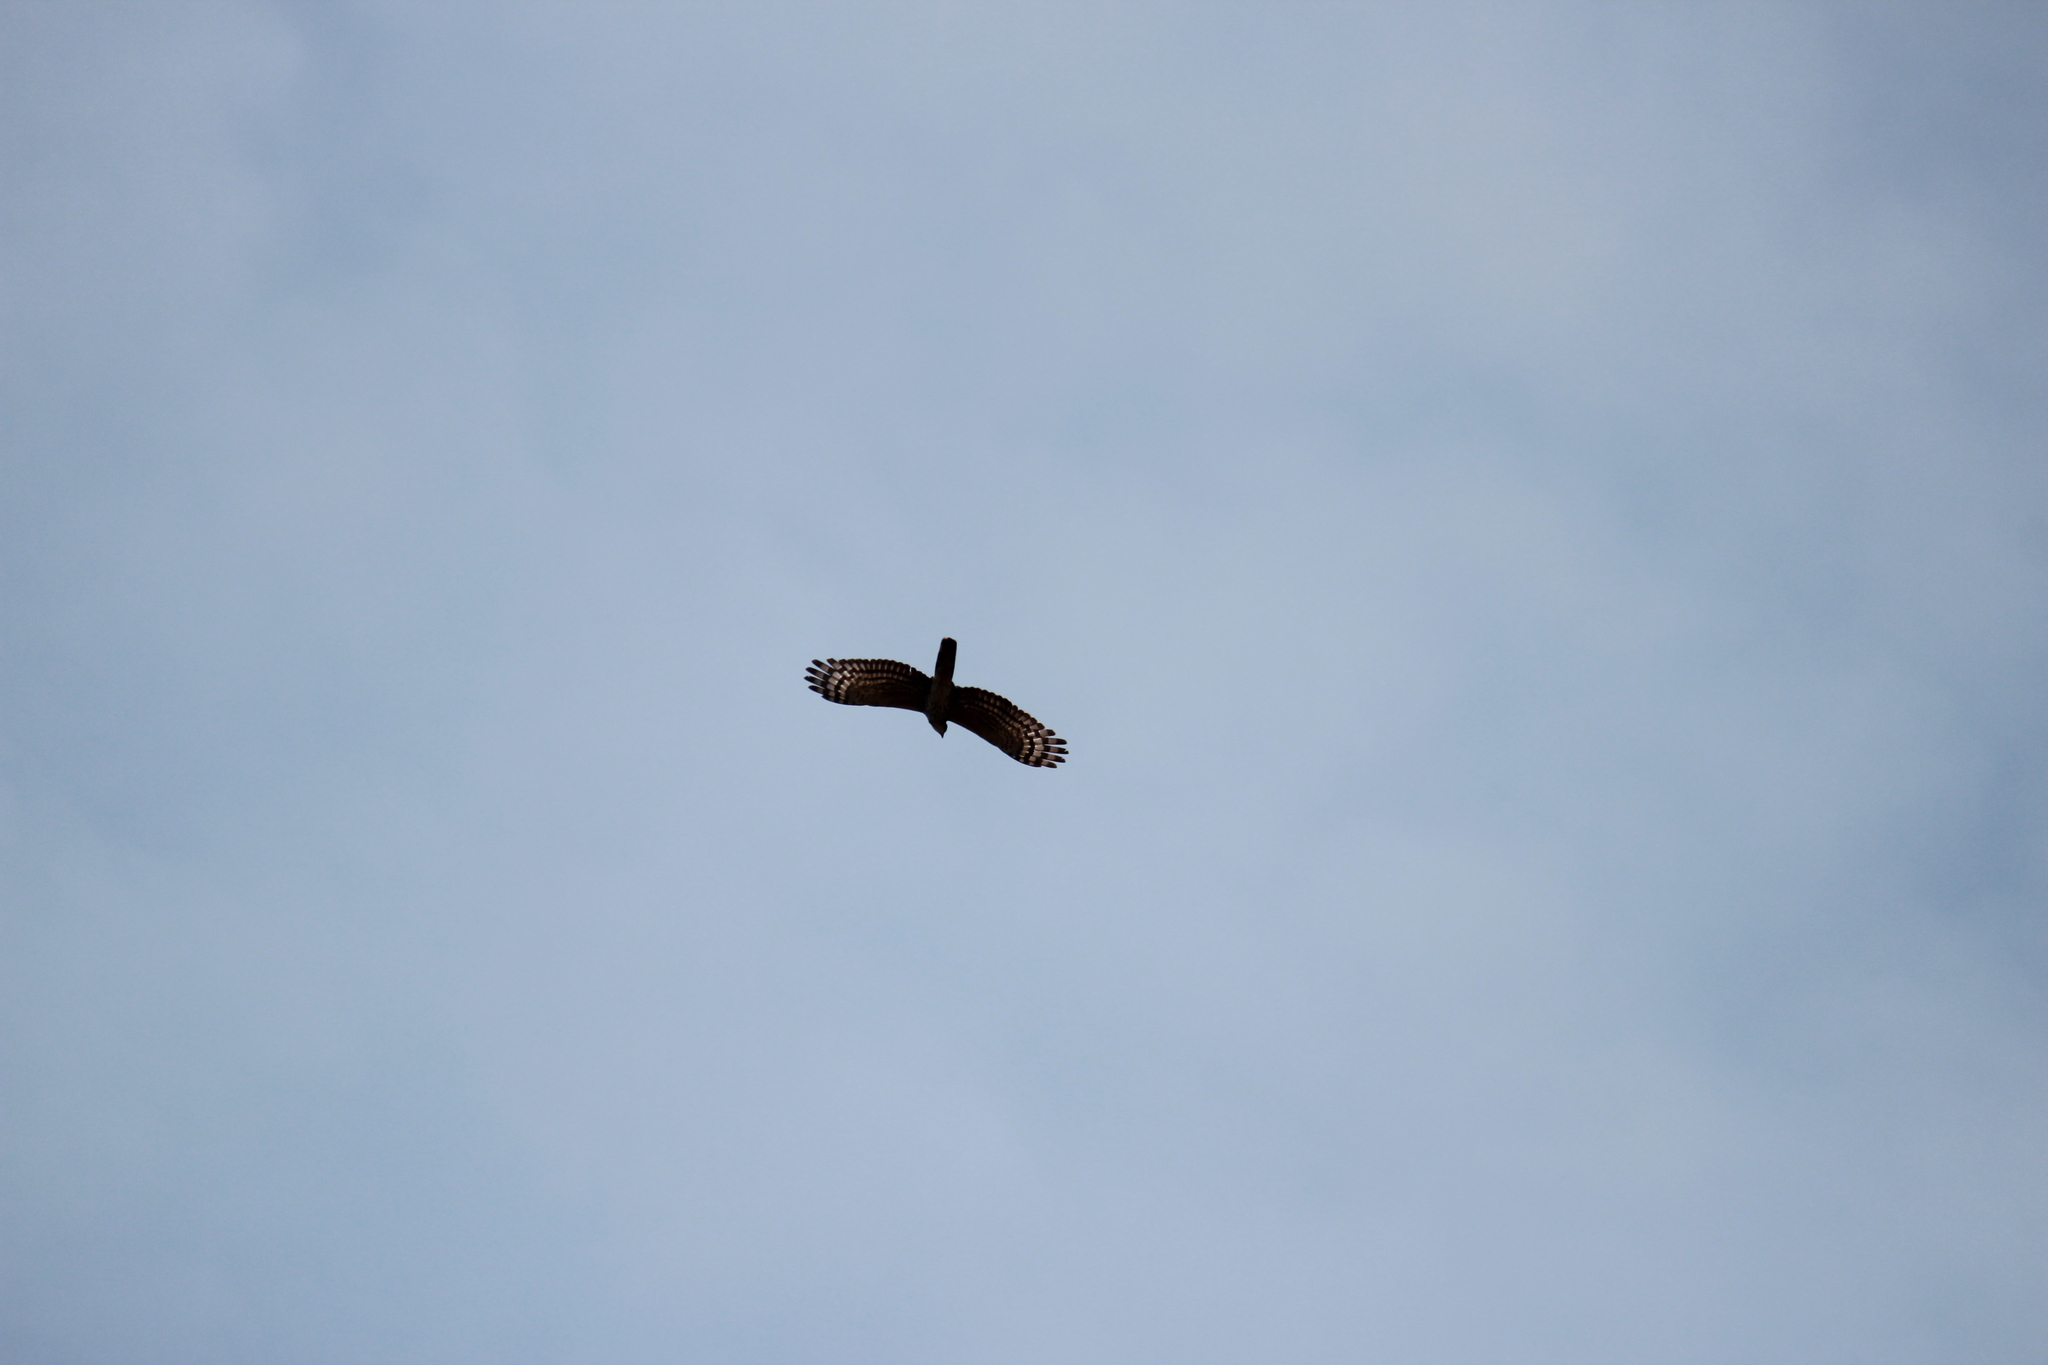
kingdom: Animalia
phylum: Chordata
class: Aves
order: Accipitriformes
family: Accipitridae
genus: Aviceda
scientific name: Aviceda cuculoides
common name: African cuckoo-hawk
